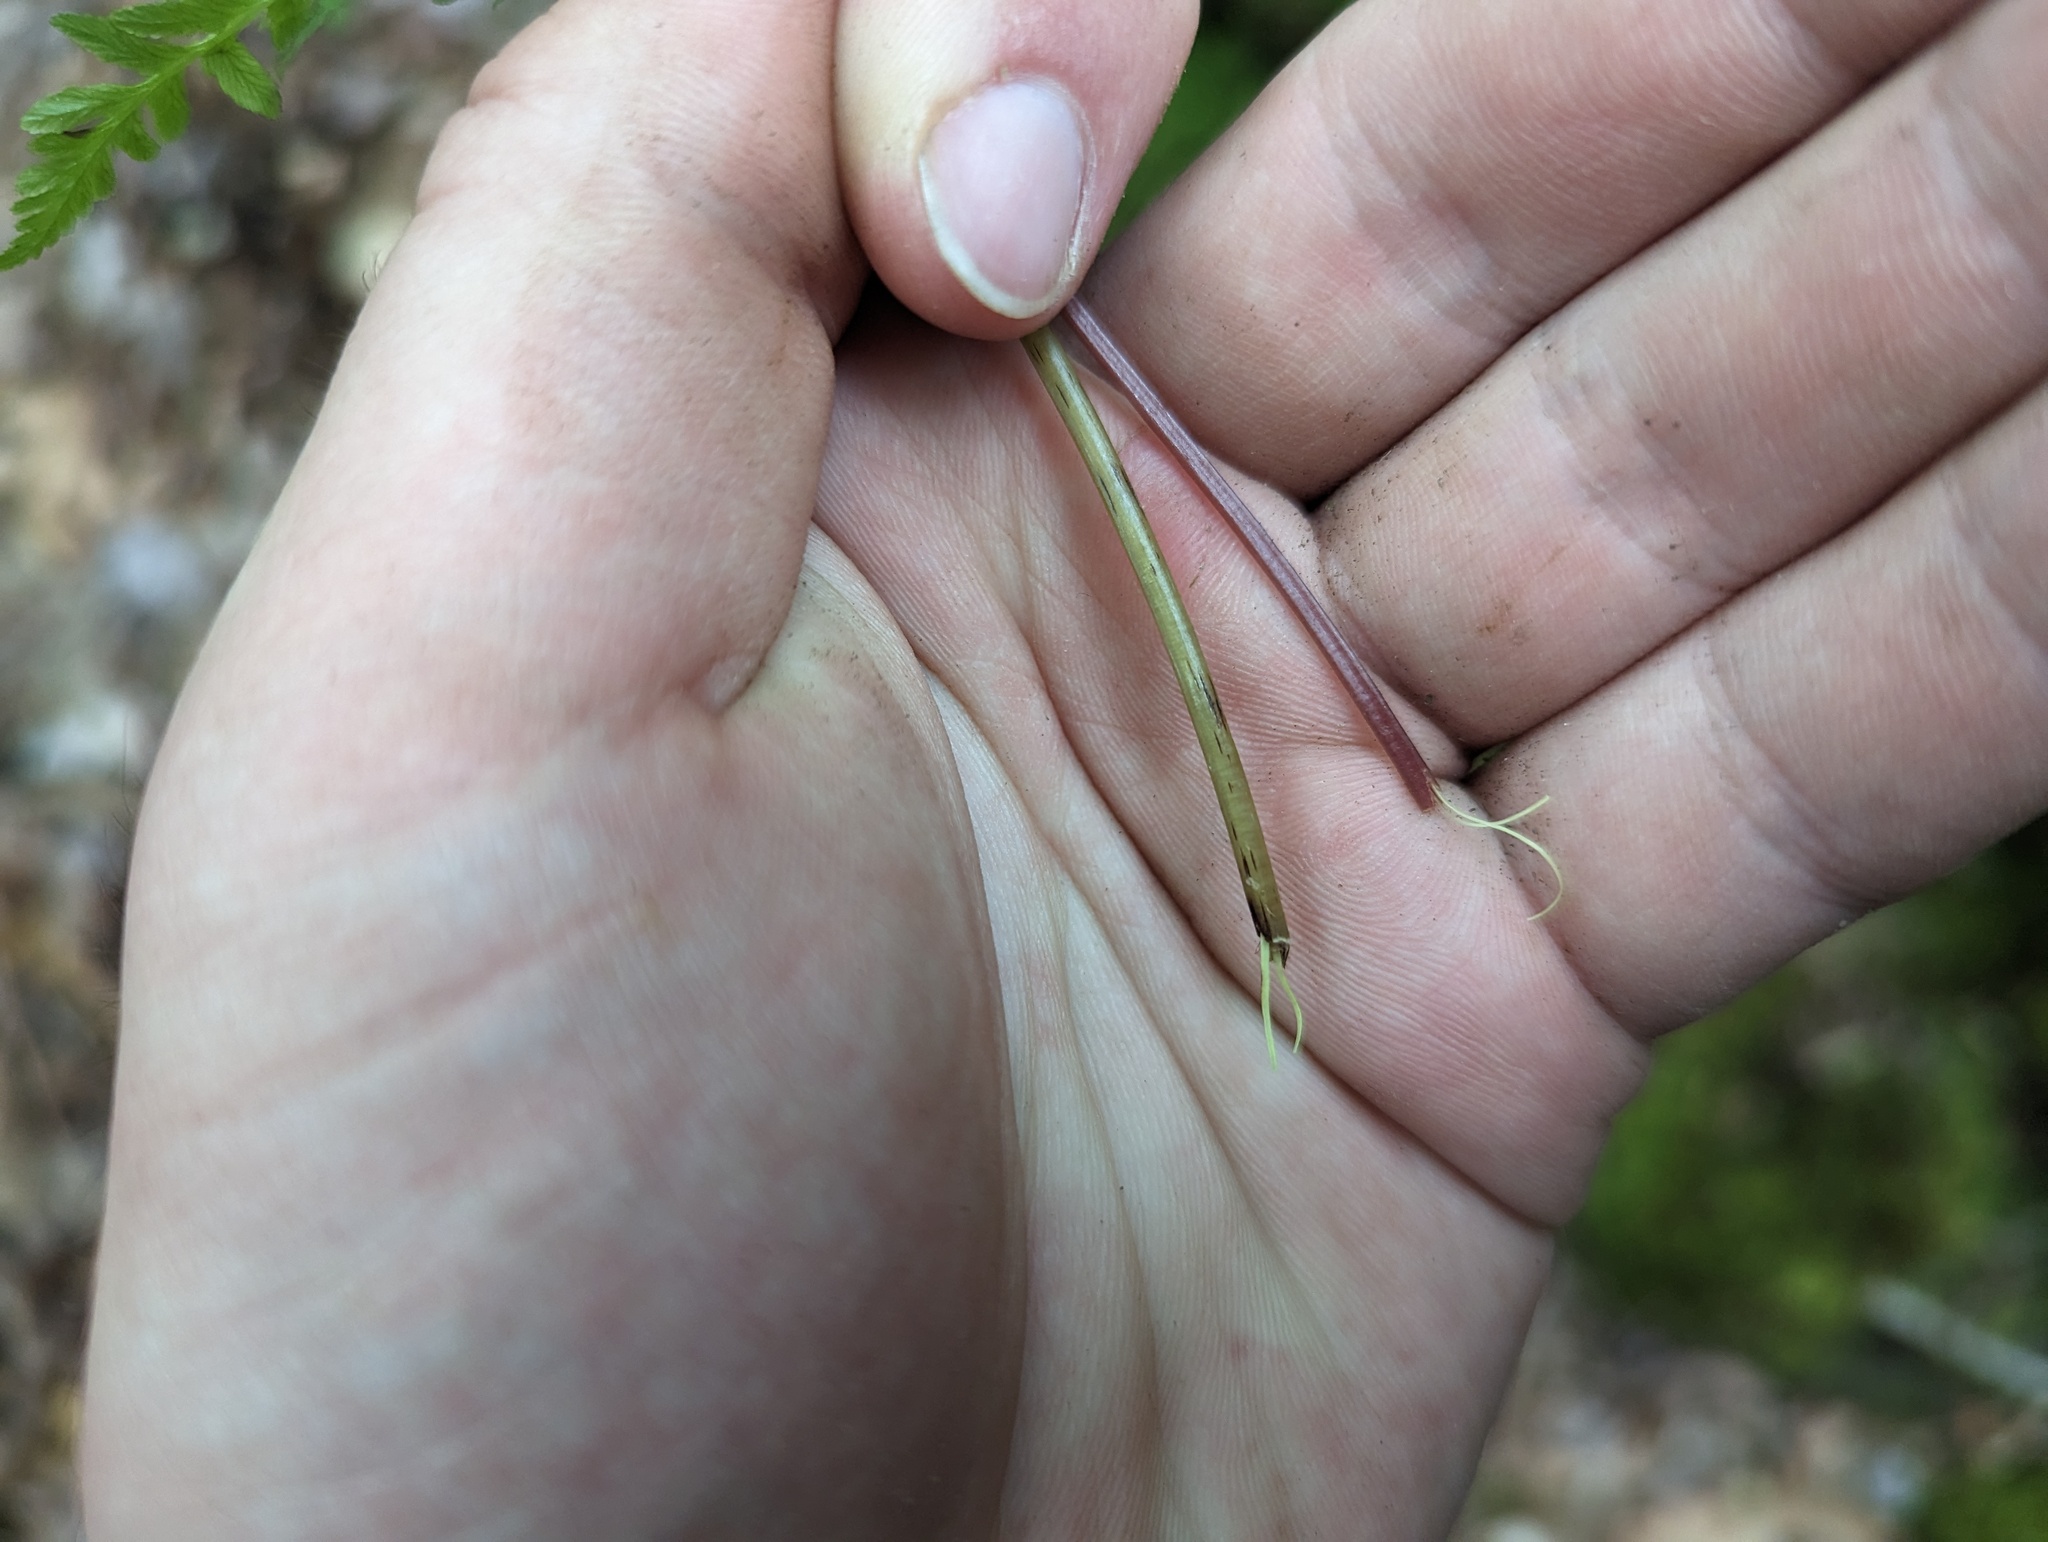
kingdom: Plantae
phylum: Tracheophyta
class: Polypodiopsida
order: Polypodiales
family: Athyriaceae
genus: Athyrium
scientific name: Athyrium asplenioides
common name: Southern lady fern
